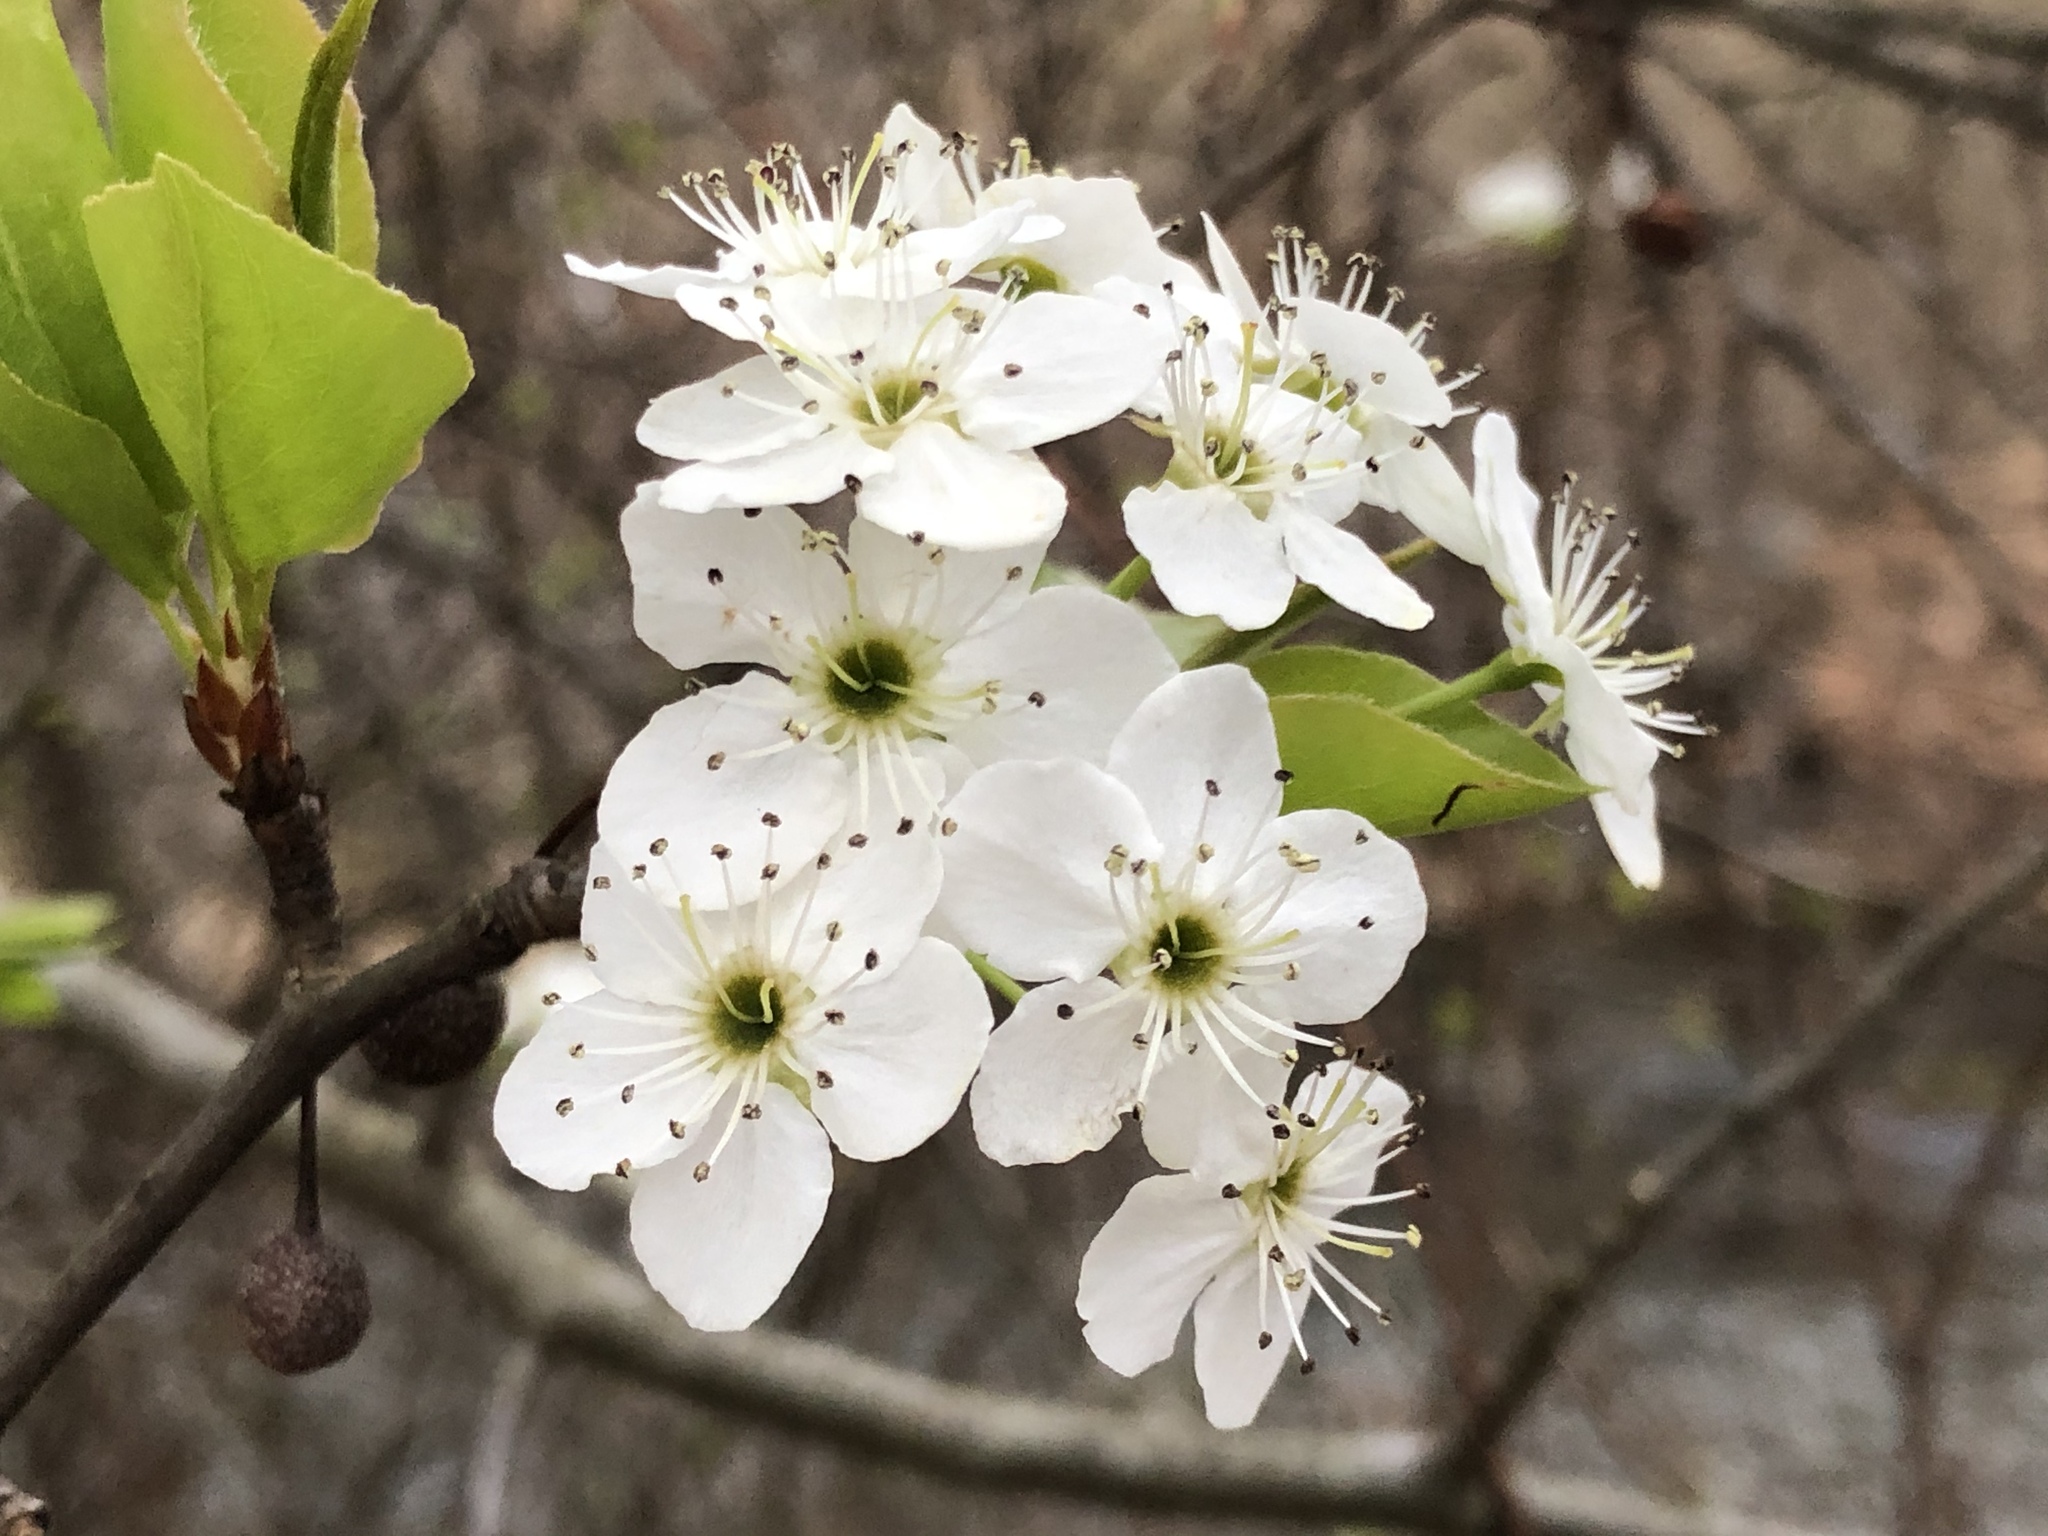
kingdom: Plantae
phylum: Tracheophyta
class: Magnoliopsida
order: Rosales
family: Rosaceae
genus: Pyrus
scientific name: Pyrus calleryana
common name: Callery pear
